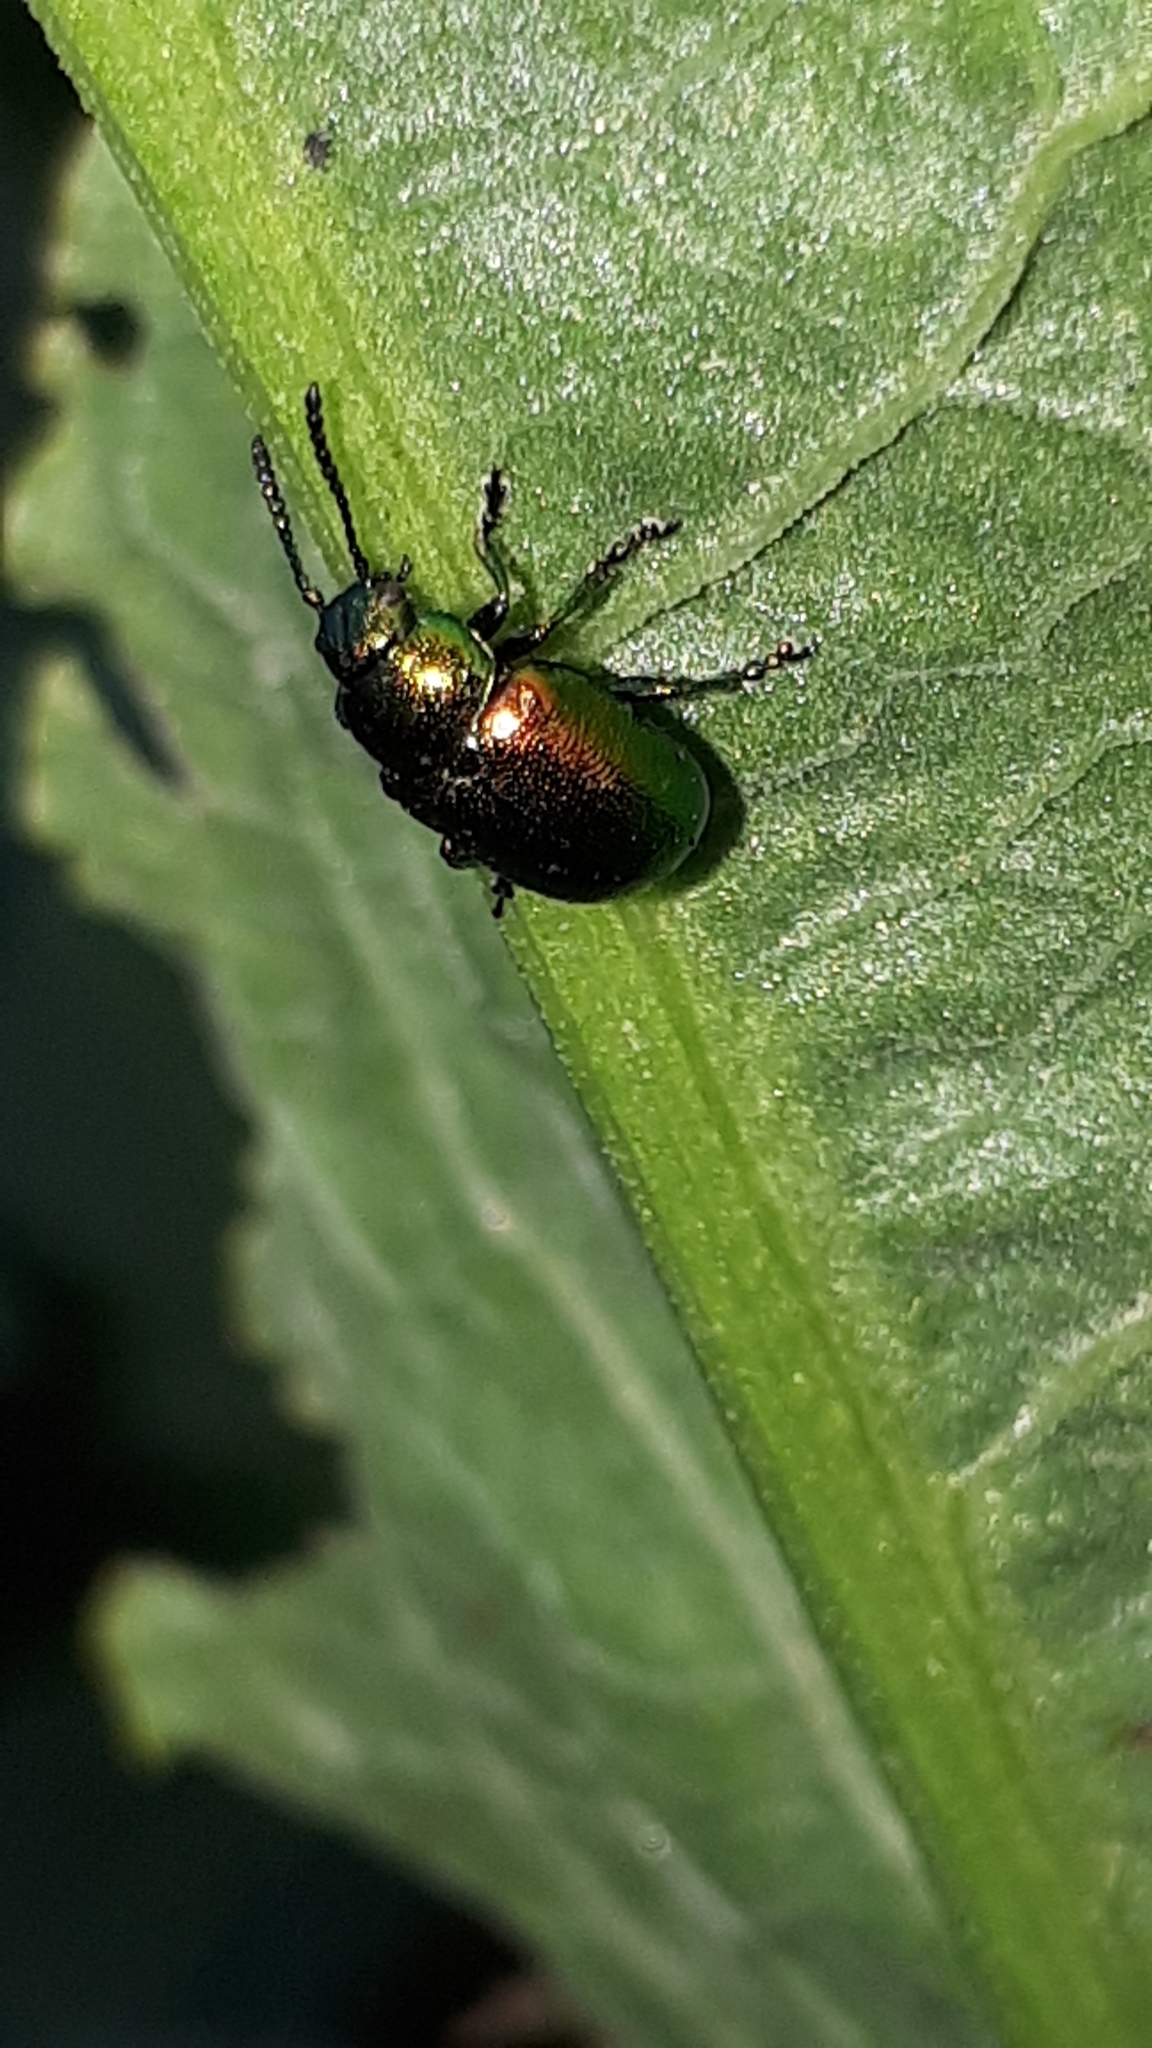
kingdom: Animalia
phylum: Arthropoda
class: Insecta
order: Coleoptera
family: Chrysomelidae
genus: Gastrophysa
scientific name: Gastrophysa viridula
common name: Green dock beetle
